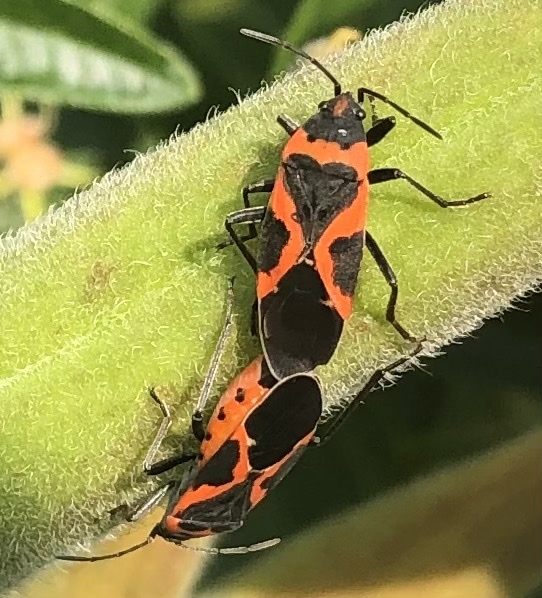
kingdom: Animalia
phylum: Arthropoda
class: Insecta
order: Hemiptera
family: Lygaeidae
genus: Lygaeus
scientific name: Lygaeus kalmii
